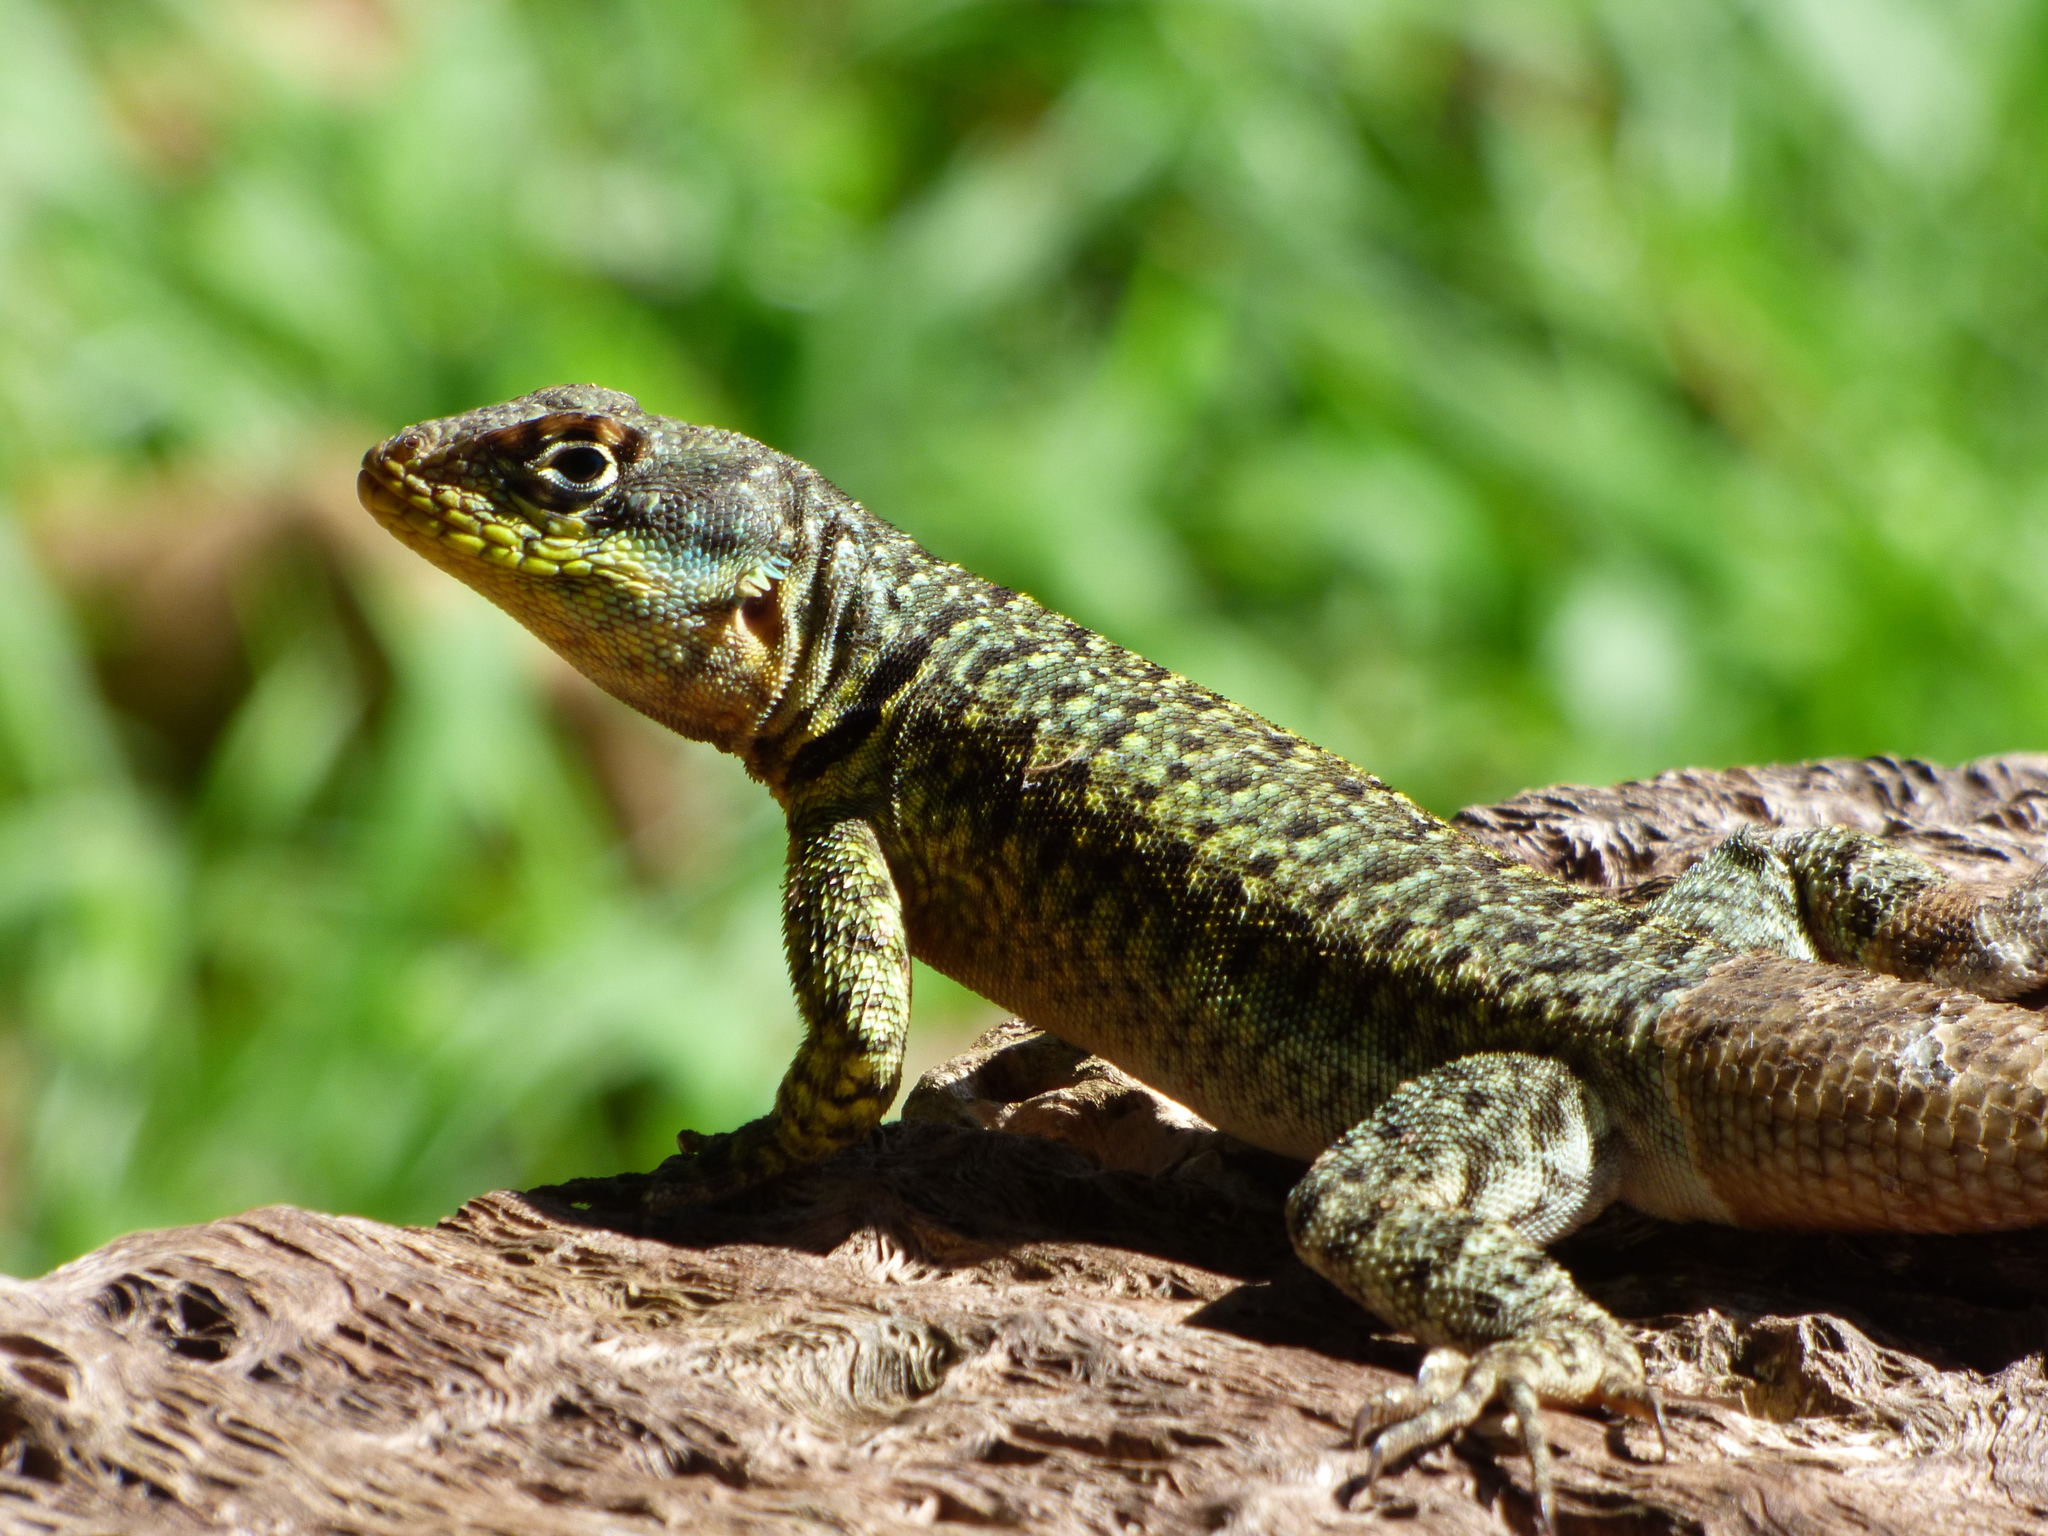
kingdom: Animalia
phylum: Chordata
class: Squamata
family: Tropiduridae
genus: Tropidurus
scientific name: Tropidurus catalanensis
